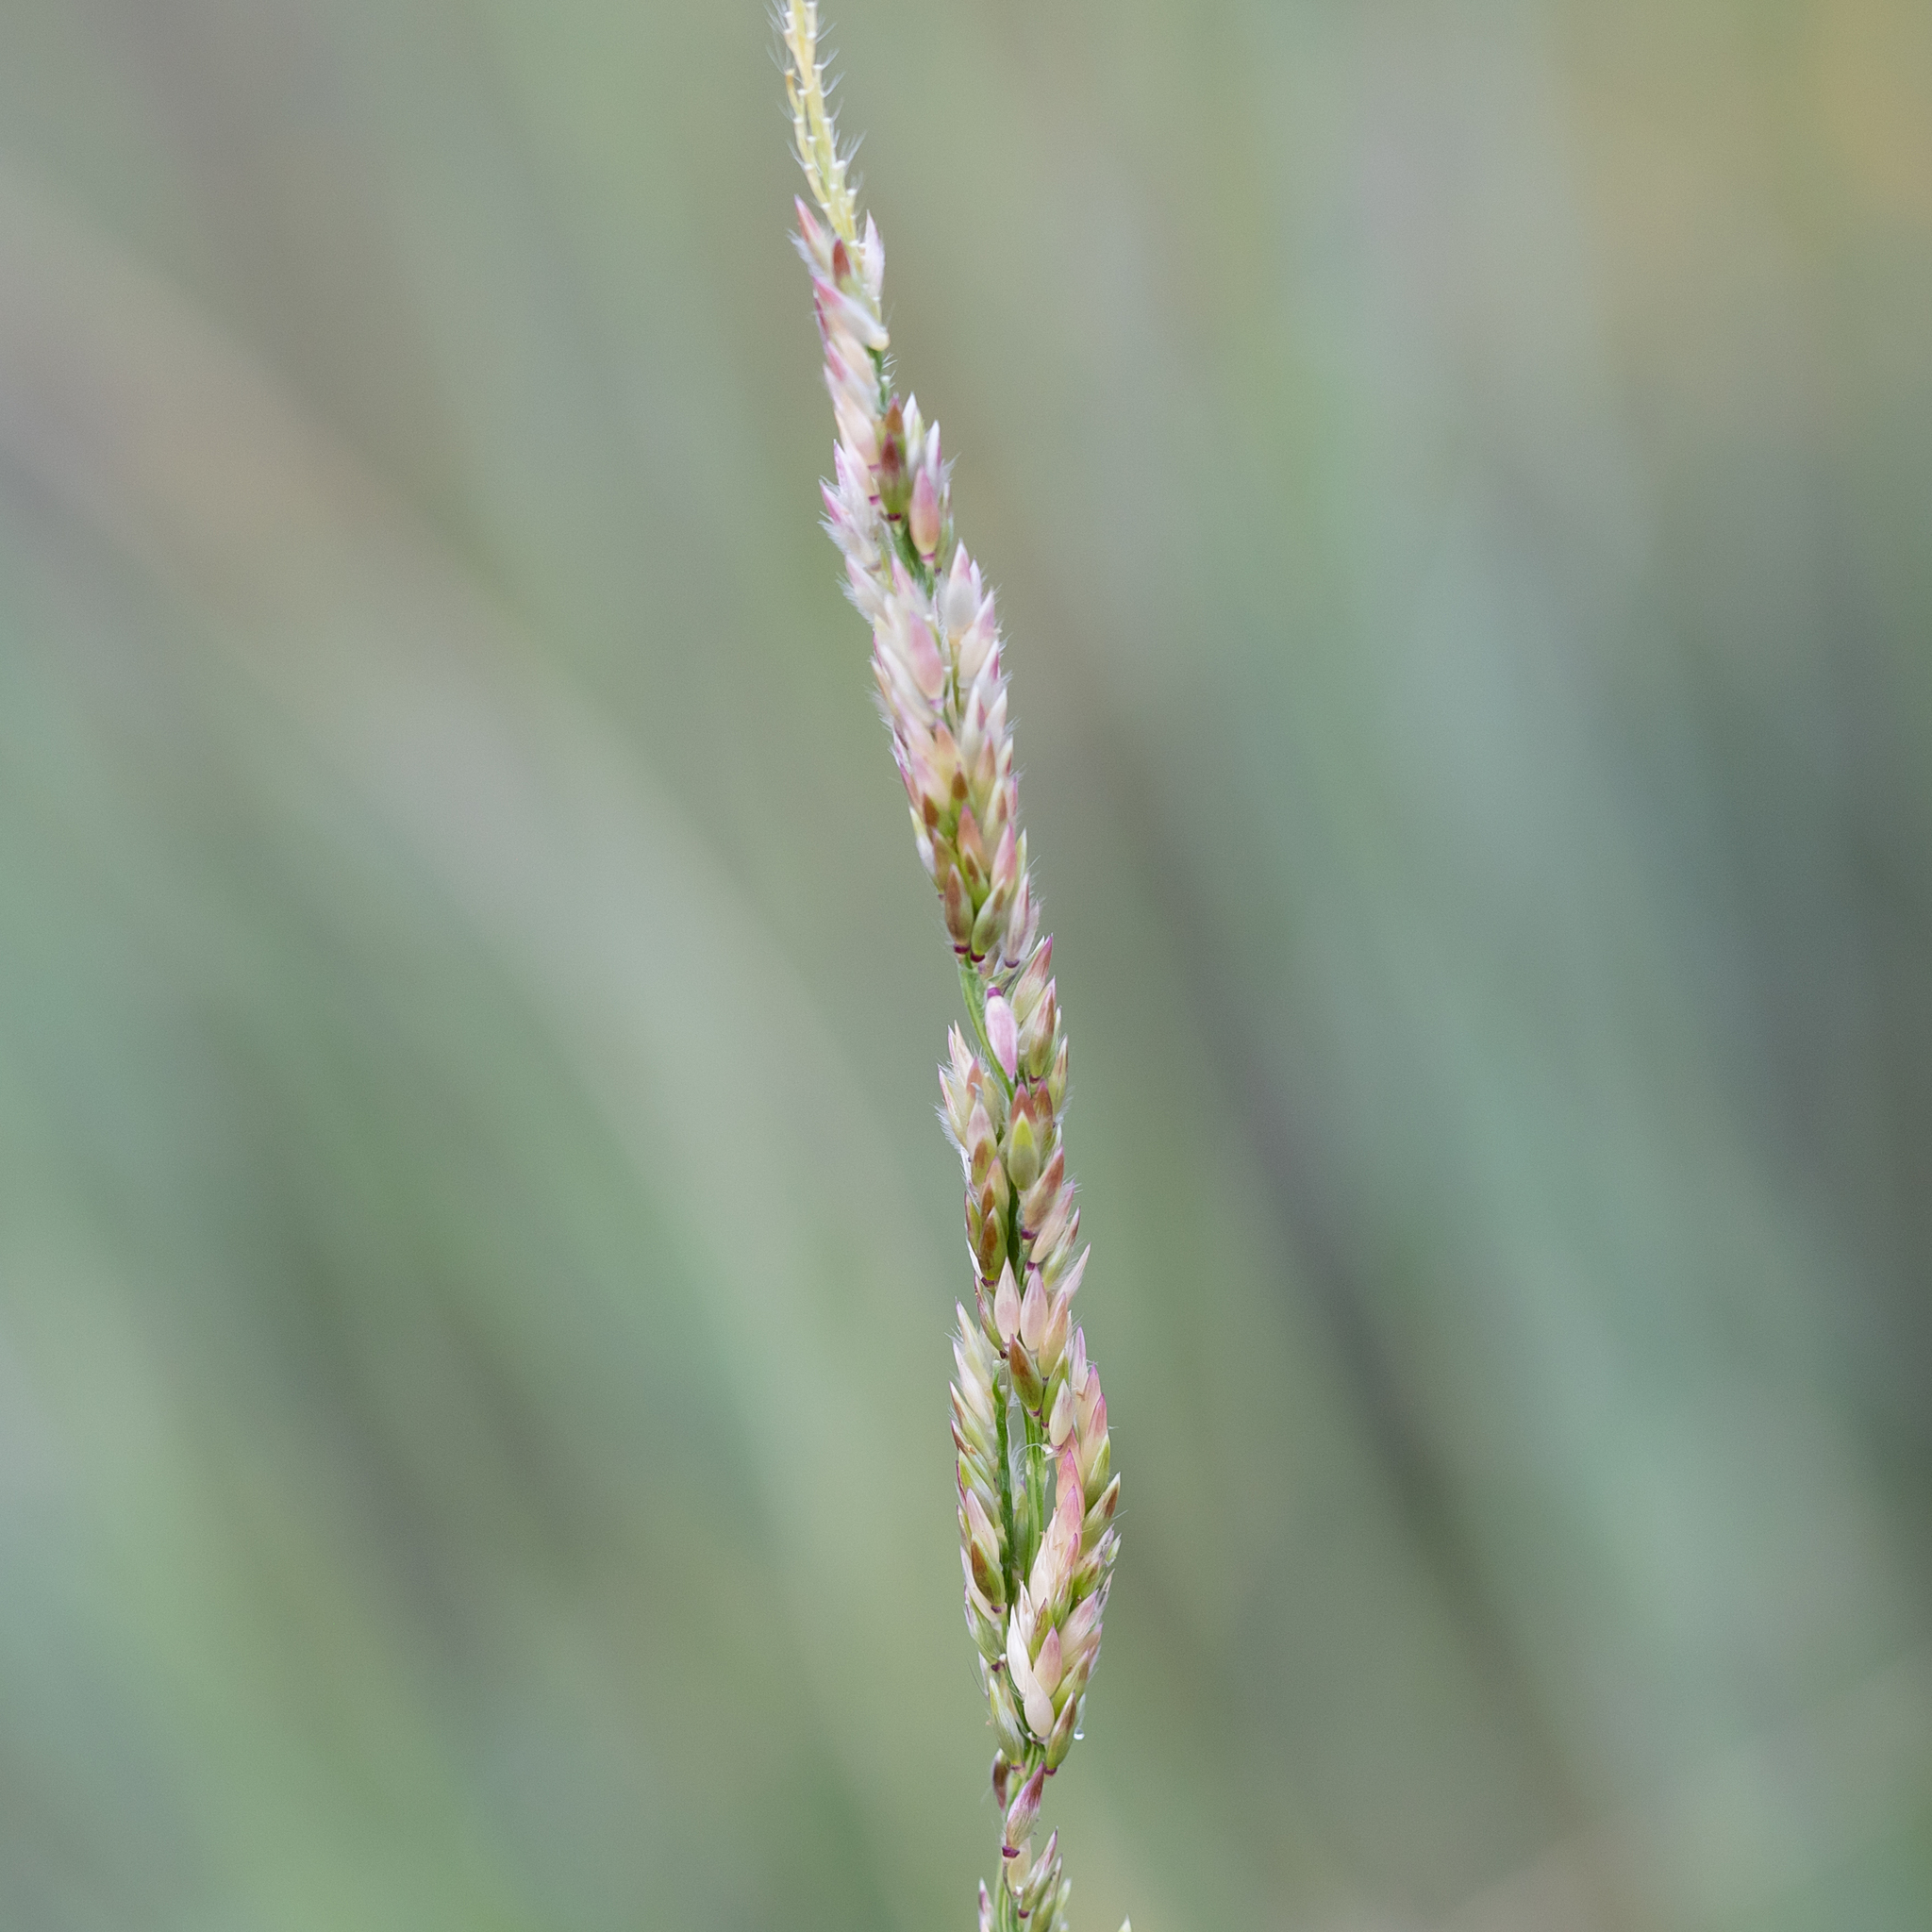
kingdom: Plantae
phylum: Tracheophyta
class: Liliopsida
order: Poales
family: Poaceae
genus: Eriochloa
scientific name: Eriochloa crebra
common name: Cup grass
